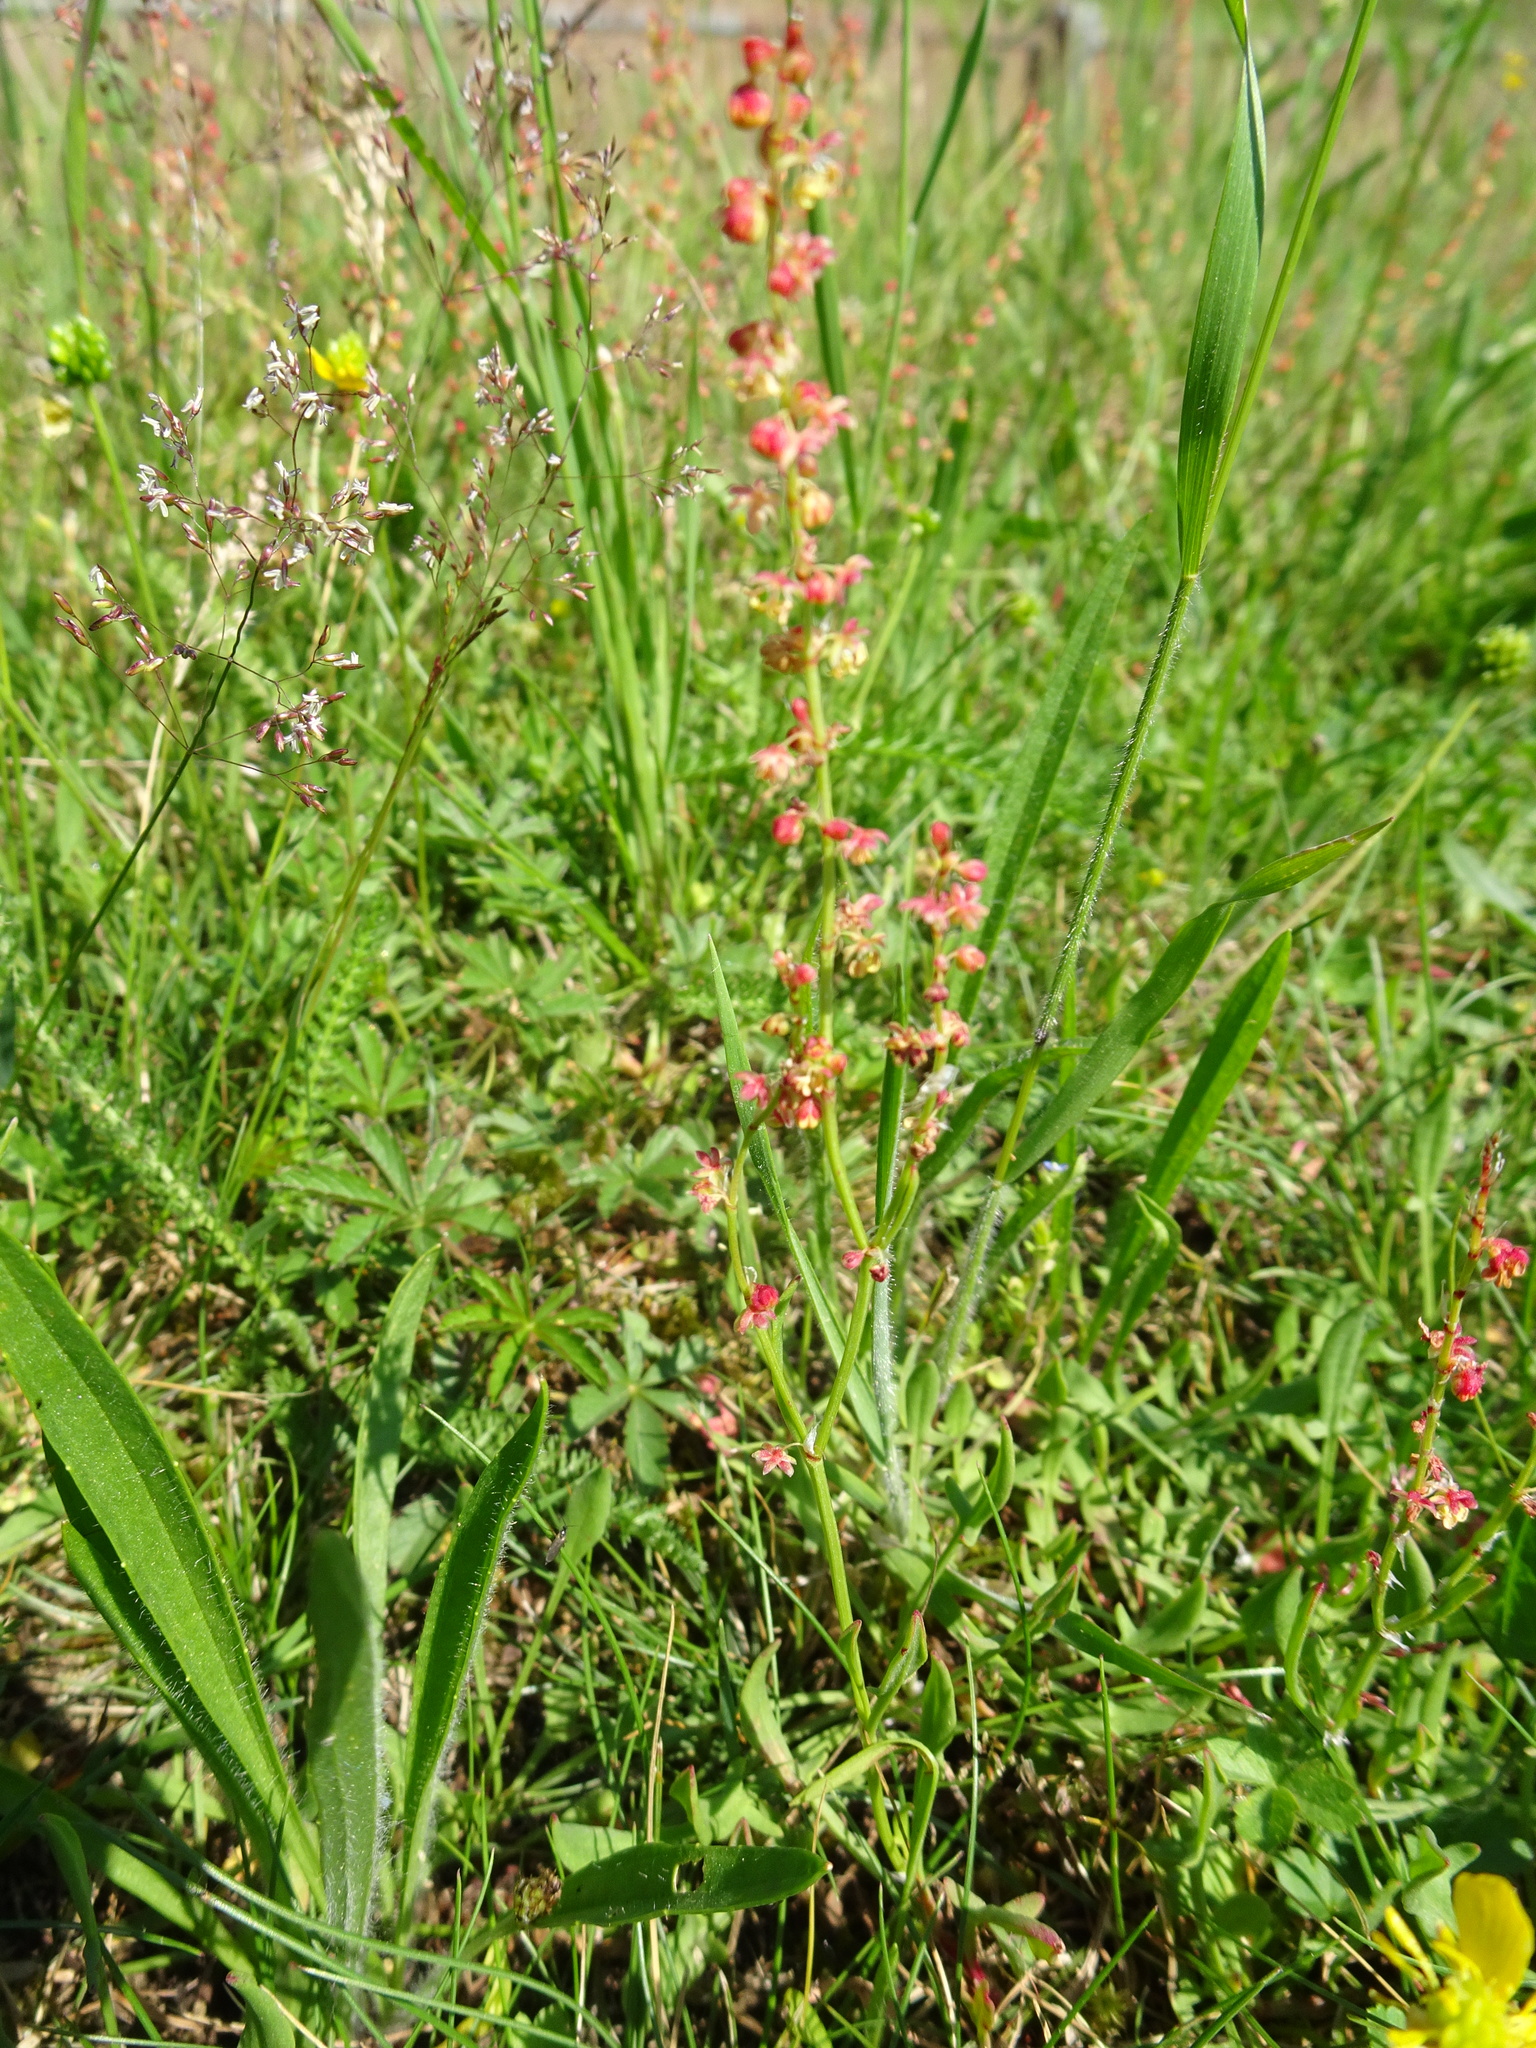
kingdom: Plantae
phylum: Tracheophyta
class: Magnoliopsida
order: Caryophyllales
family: Polygonaceae
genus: Rumex
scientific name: Rumex acetosella
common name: Common sheep sorrel
